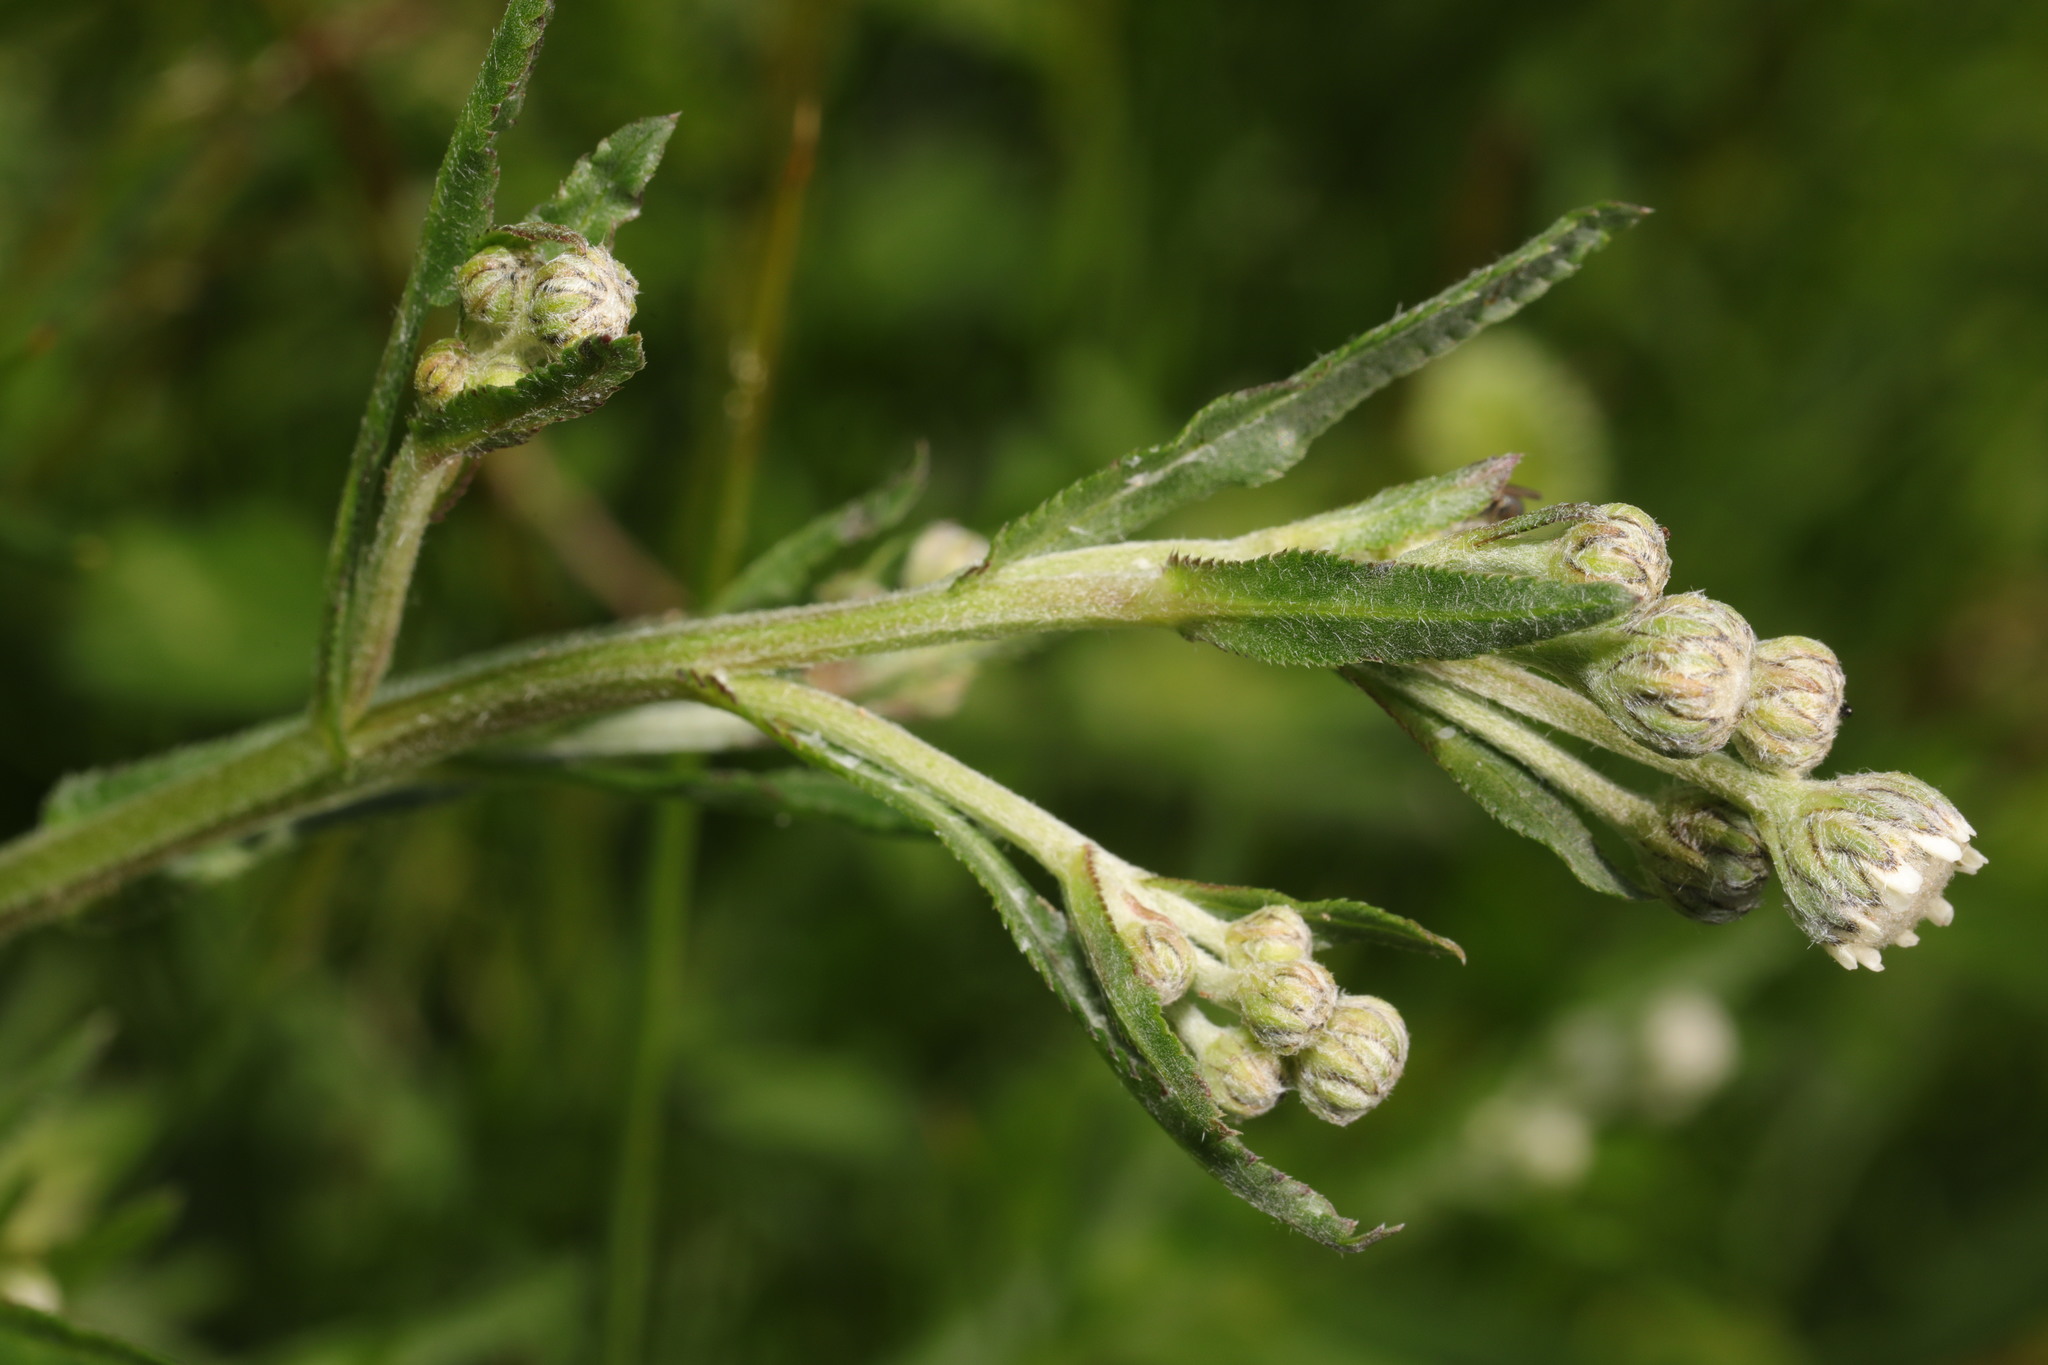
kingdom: Plantae
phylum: Tracheophyta
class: Magnoliopsida
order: Asterales
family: Asteraceae
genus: Achillea
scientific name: Achillea ptarmica
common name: Sneezeweed
